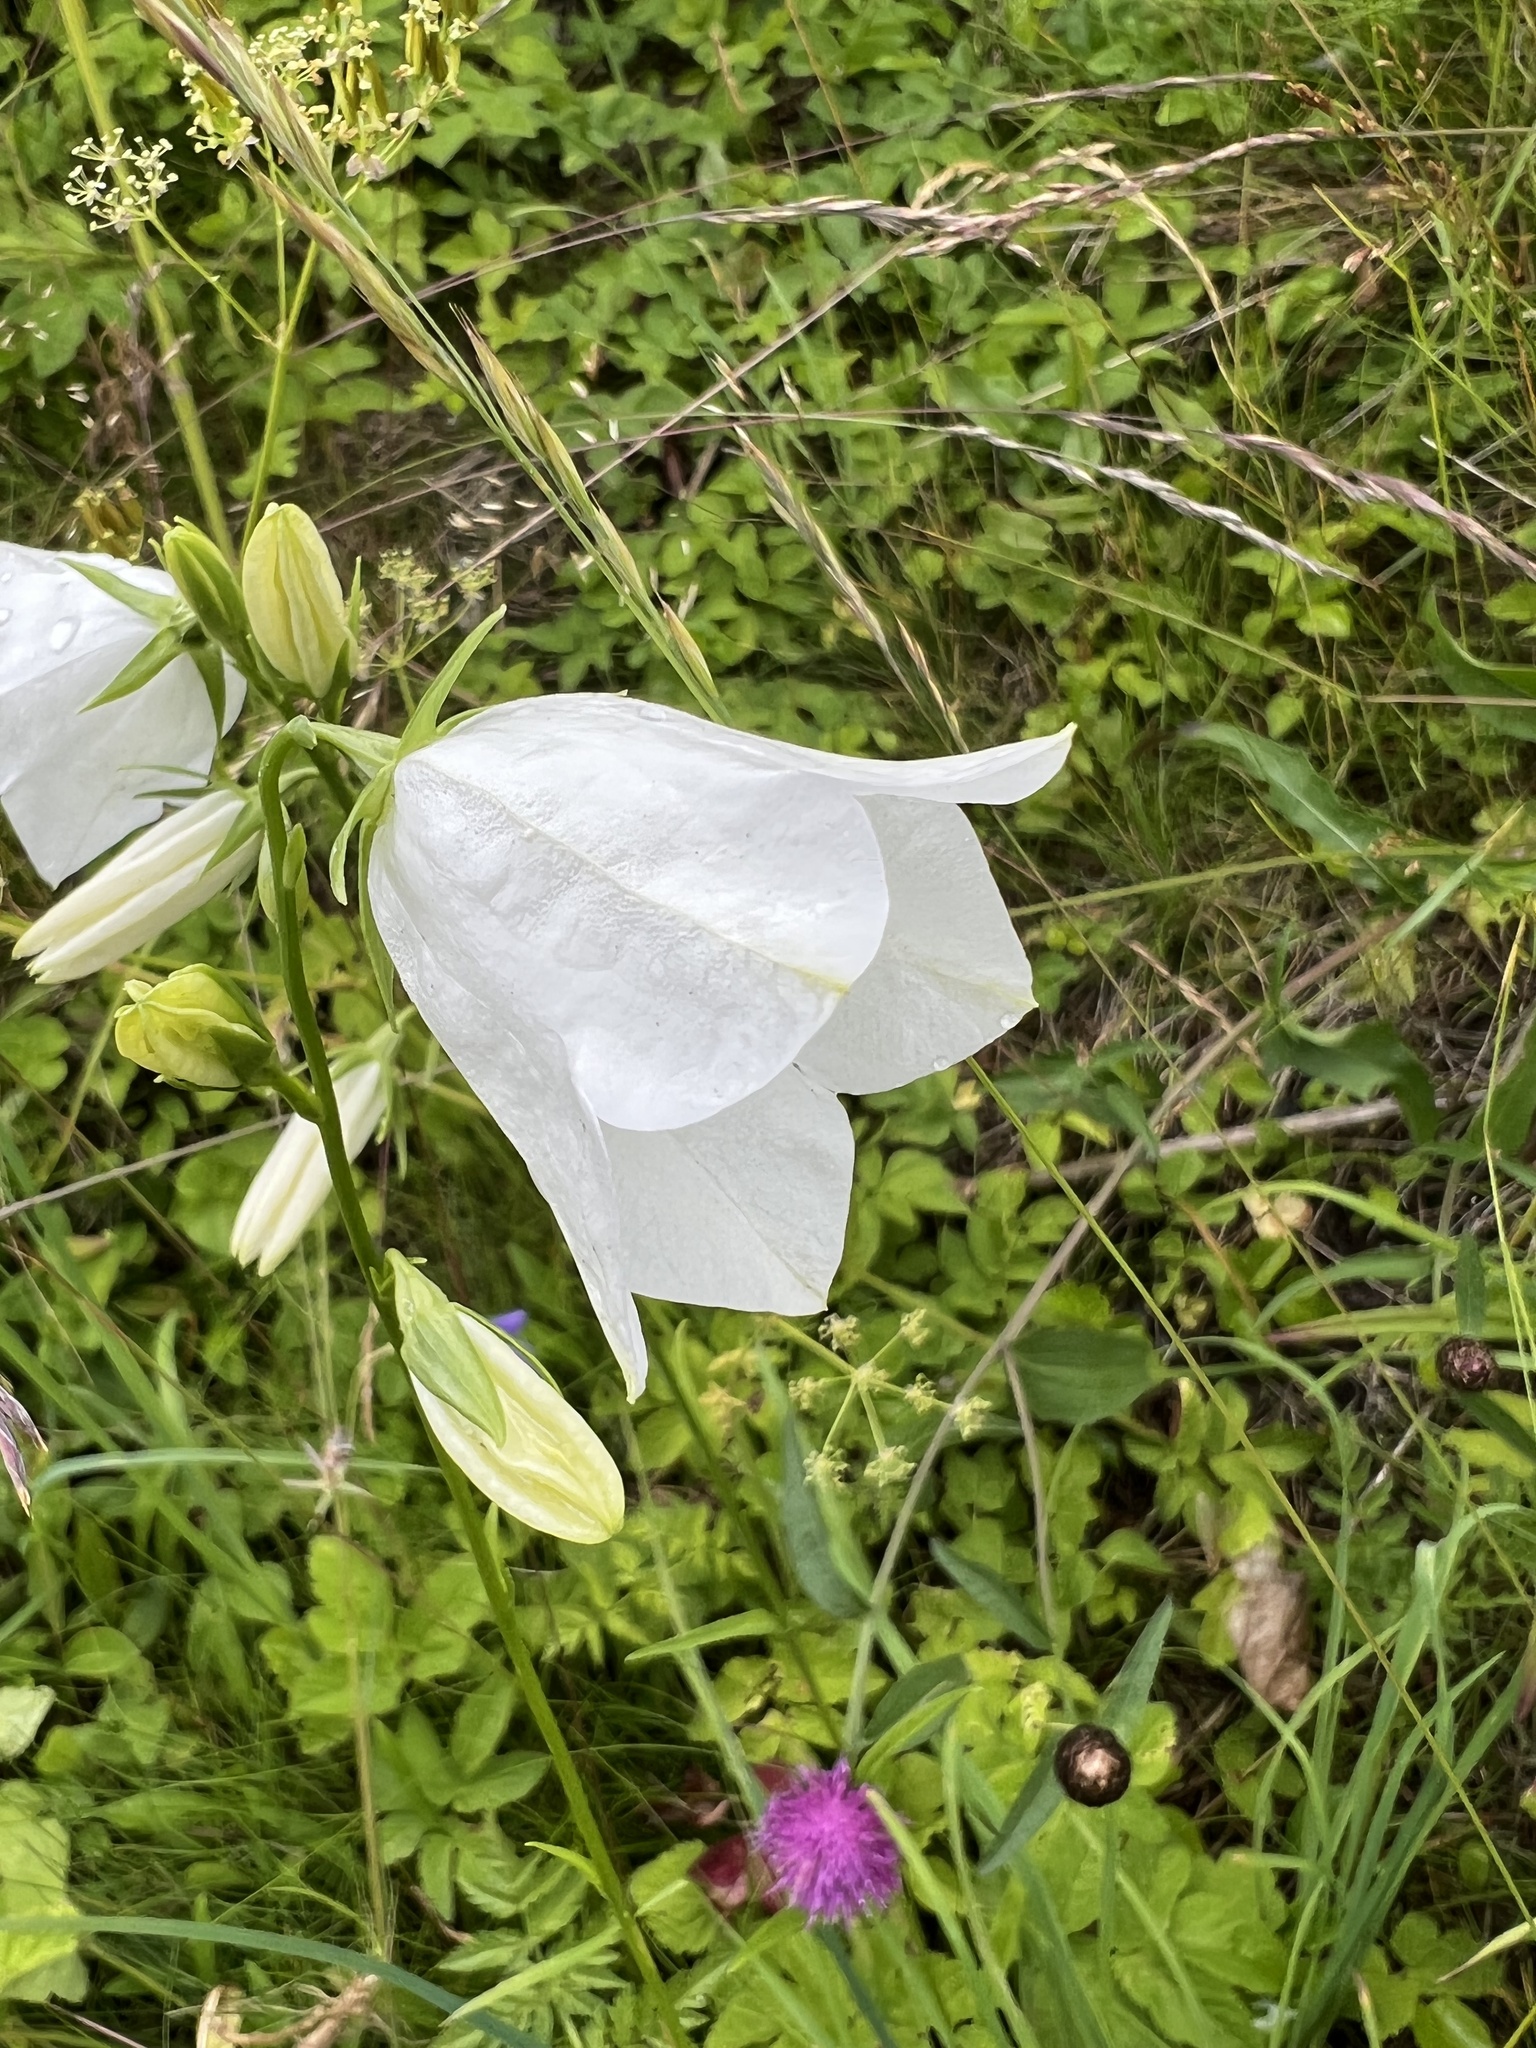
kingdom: Plantae
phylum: Tracheophyta
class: Magnoliopsida
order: Asterales
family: Campanulaceae
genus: Campanula
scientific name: Campanula persicifolia
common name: Peach-leaved bellflower
